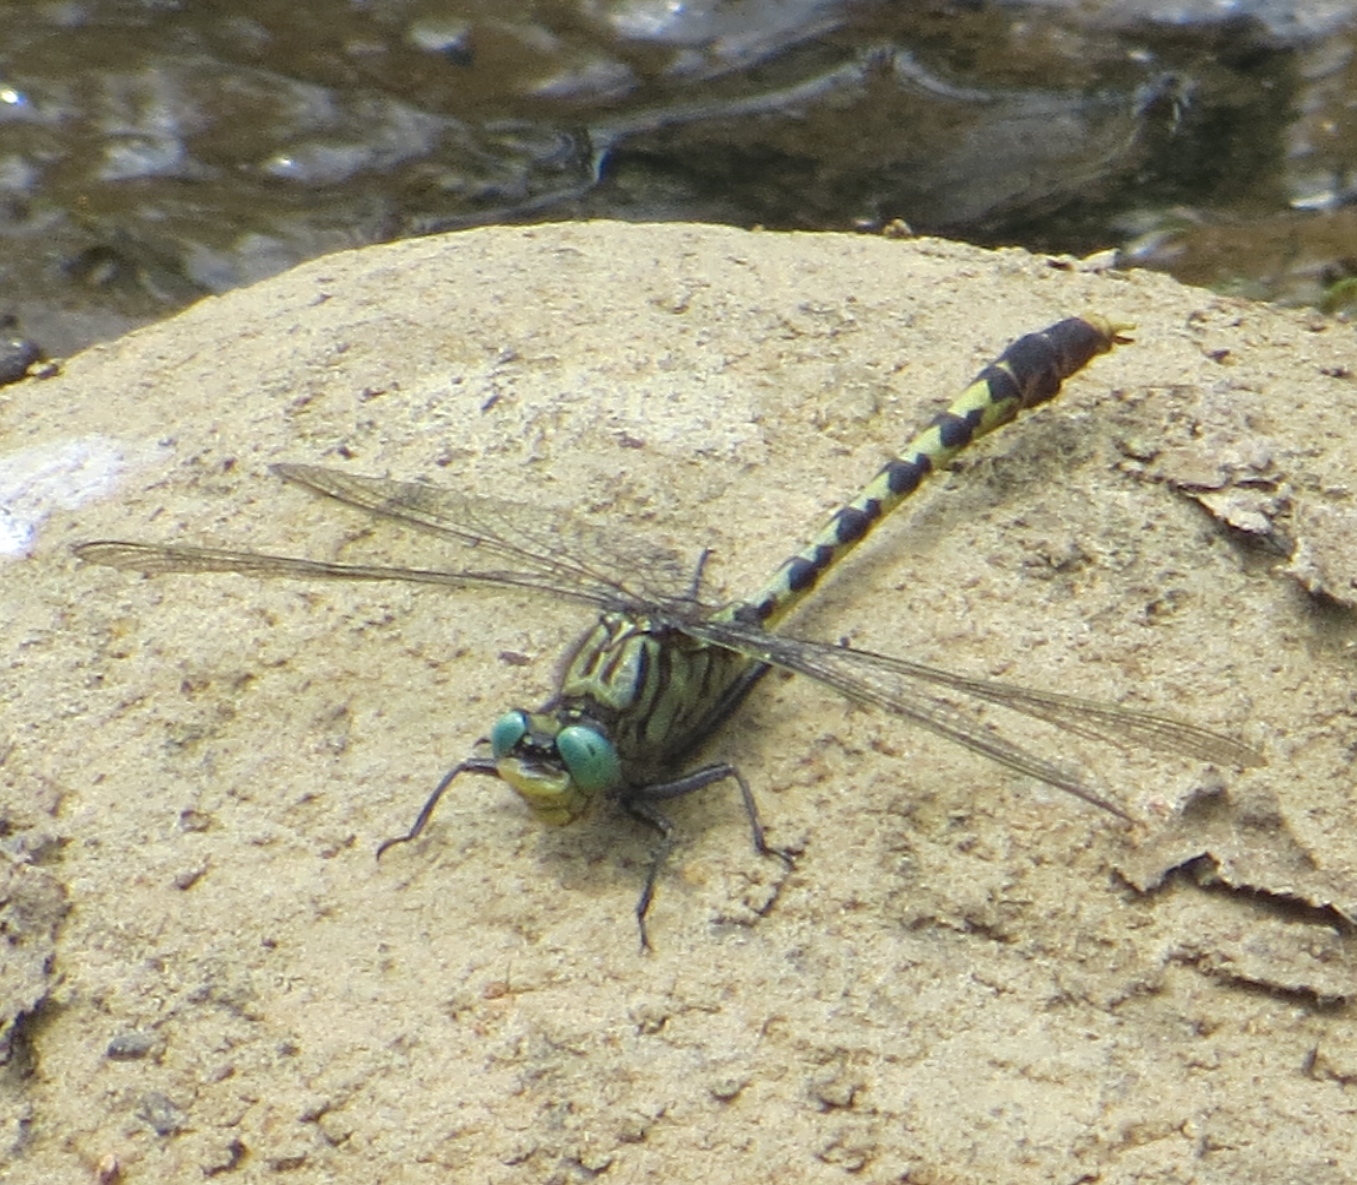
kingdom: Animalia
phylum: Arthropoda
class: Insecta
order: Odonata
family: Gomphidae
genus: Arigomphus
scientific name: Arigomphus villosipes
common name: Unicorn clubtail
